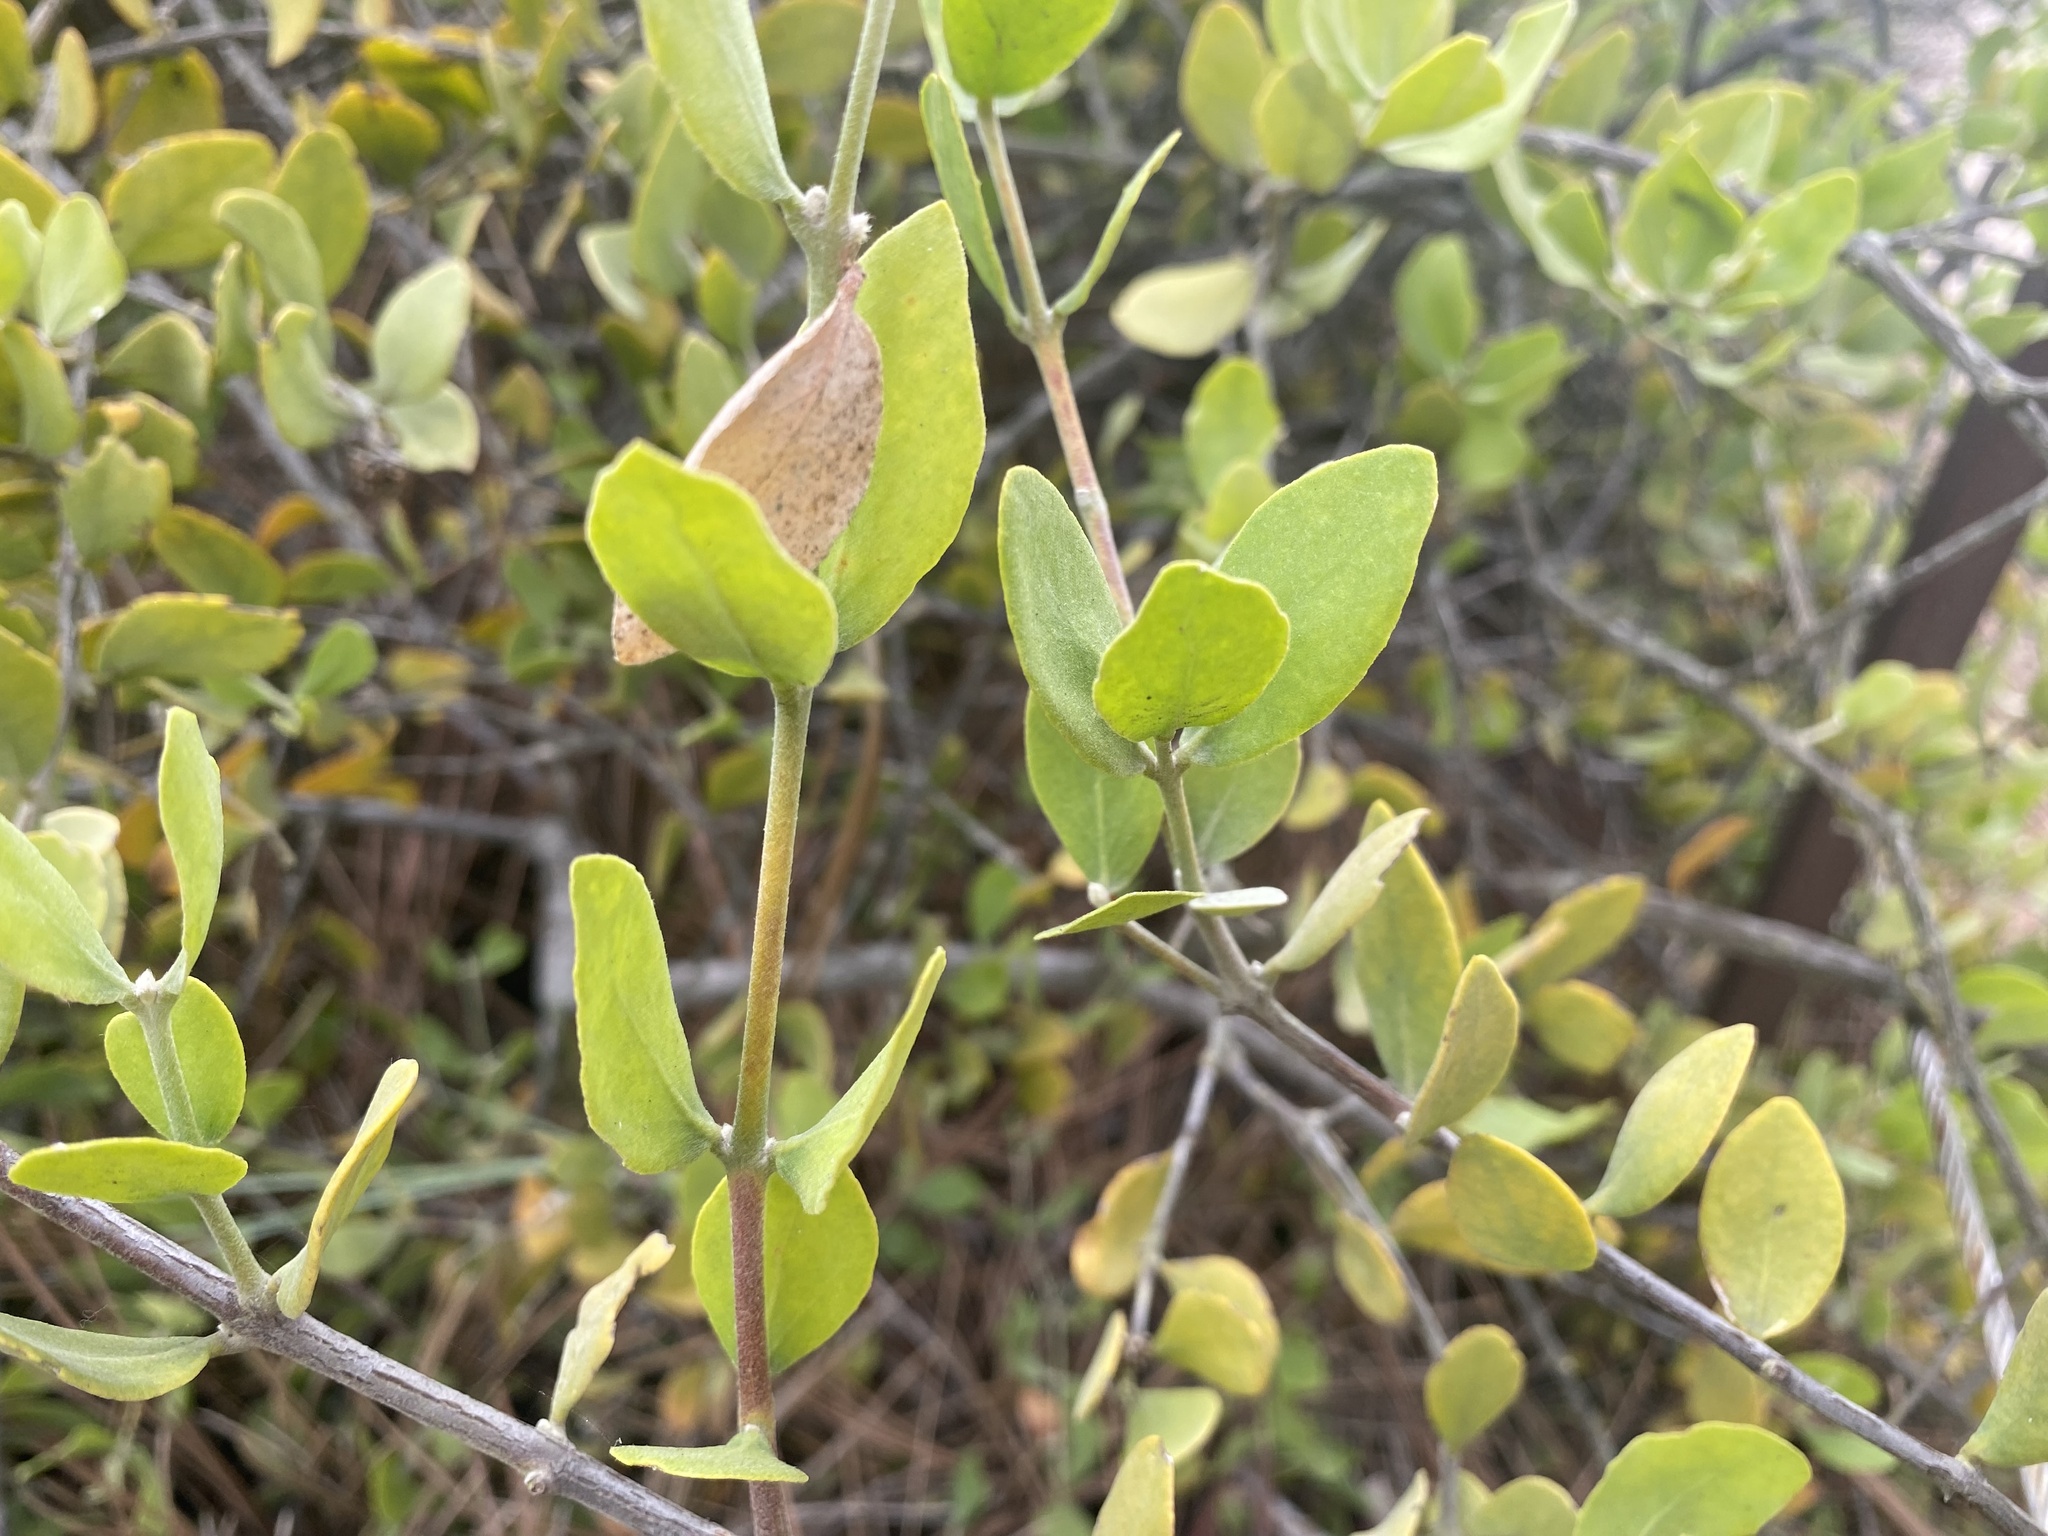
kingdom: Plantae
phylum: Tracheophyta
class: Magnoliopsida
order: Caryophyllales
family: Simmondsiaceae
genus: Simmondsia
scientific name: Simmondsia chinensis
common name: Jojoba
